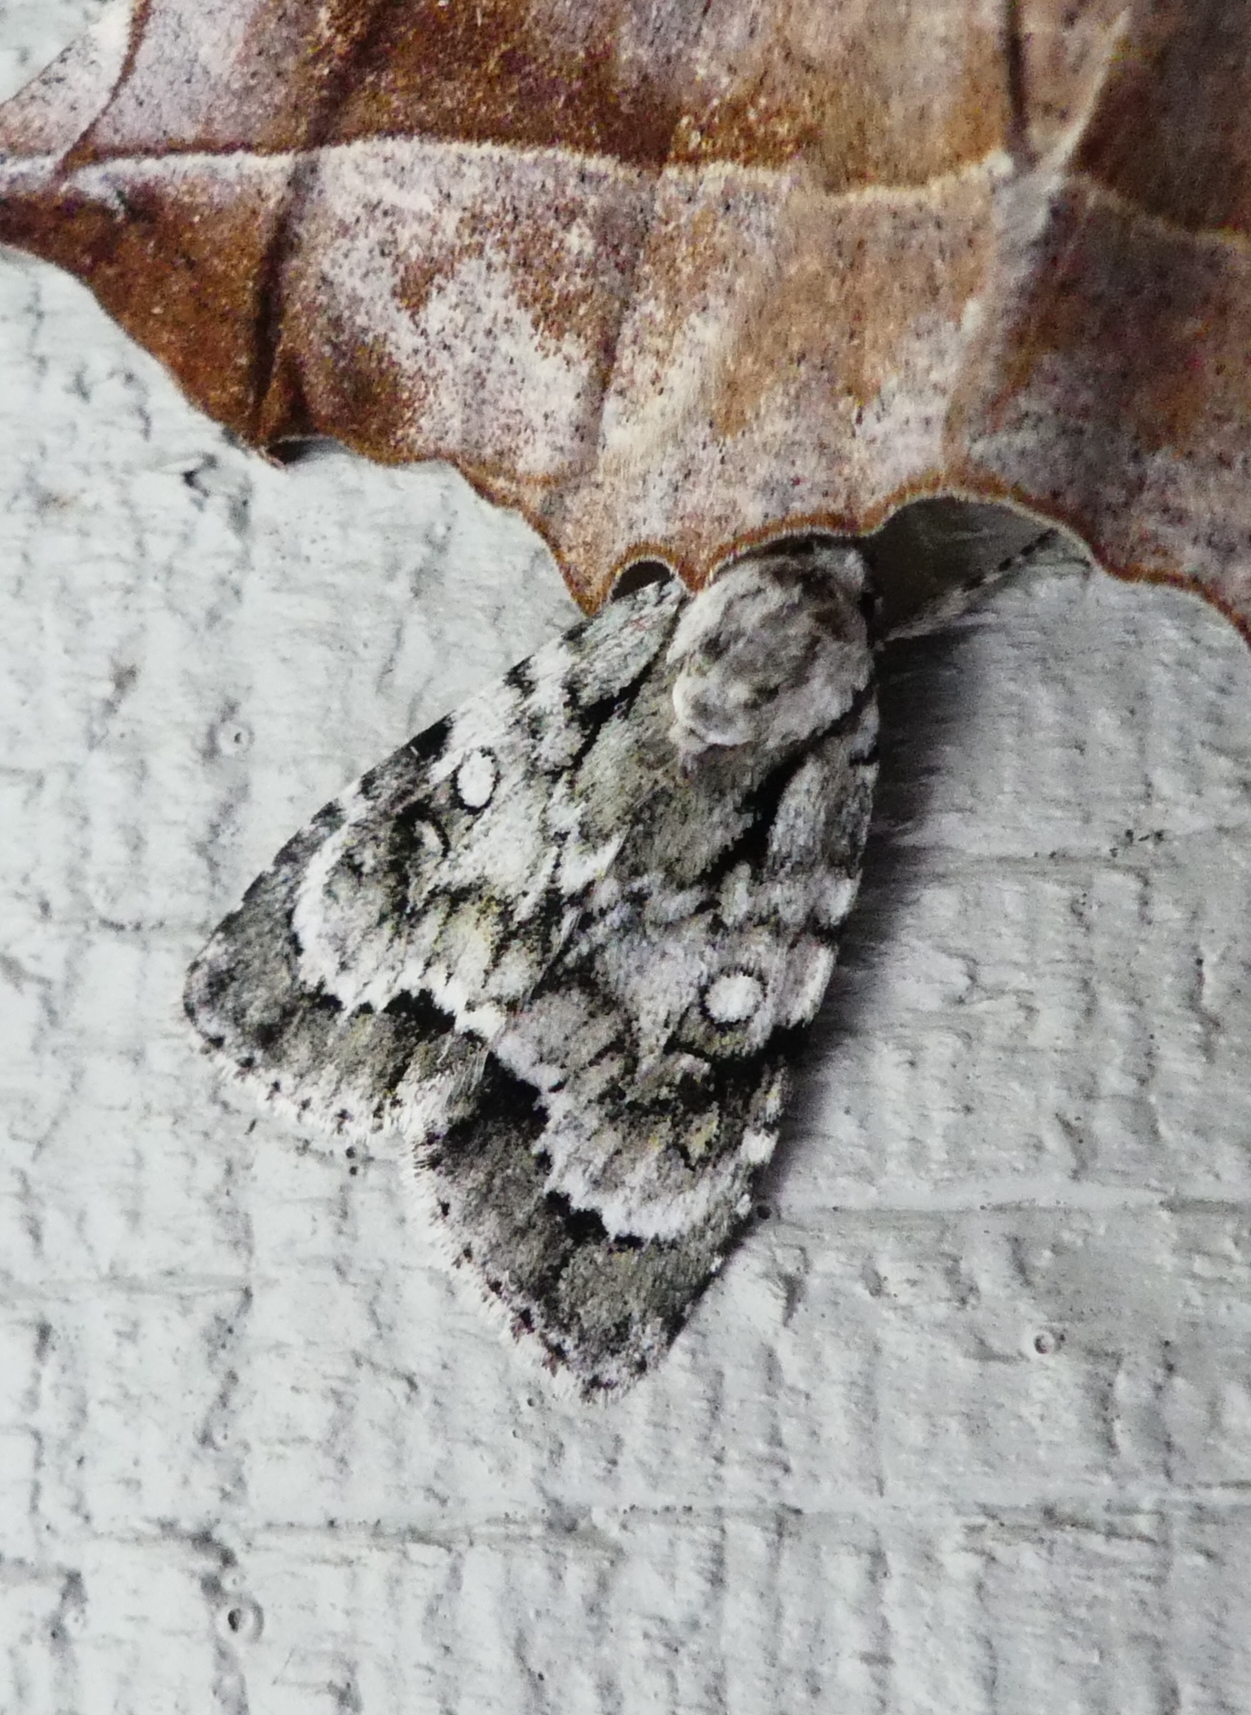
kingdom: Animalia
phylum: Arthropoda
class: Insecta
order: Lepidoptera
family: Noctuidae
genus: Acronicta
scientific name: Acronicta vinnula
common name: Delightful dagger
